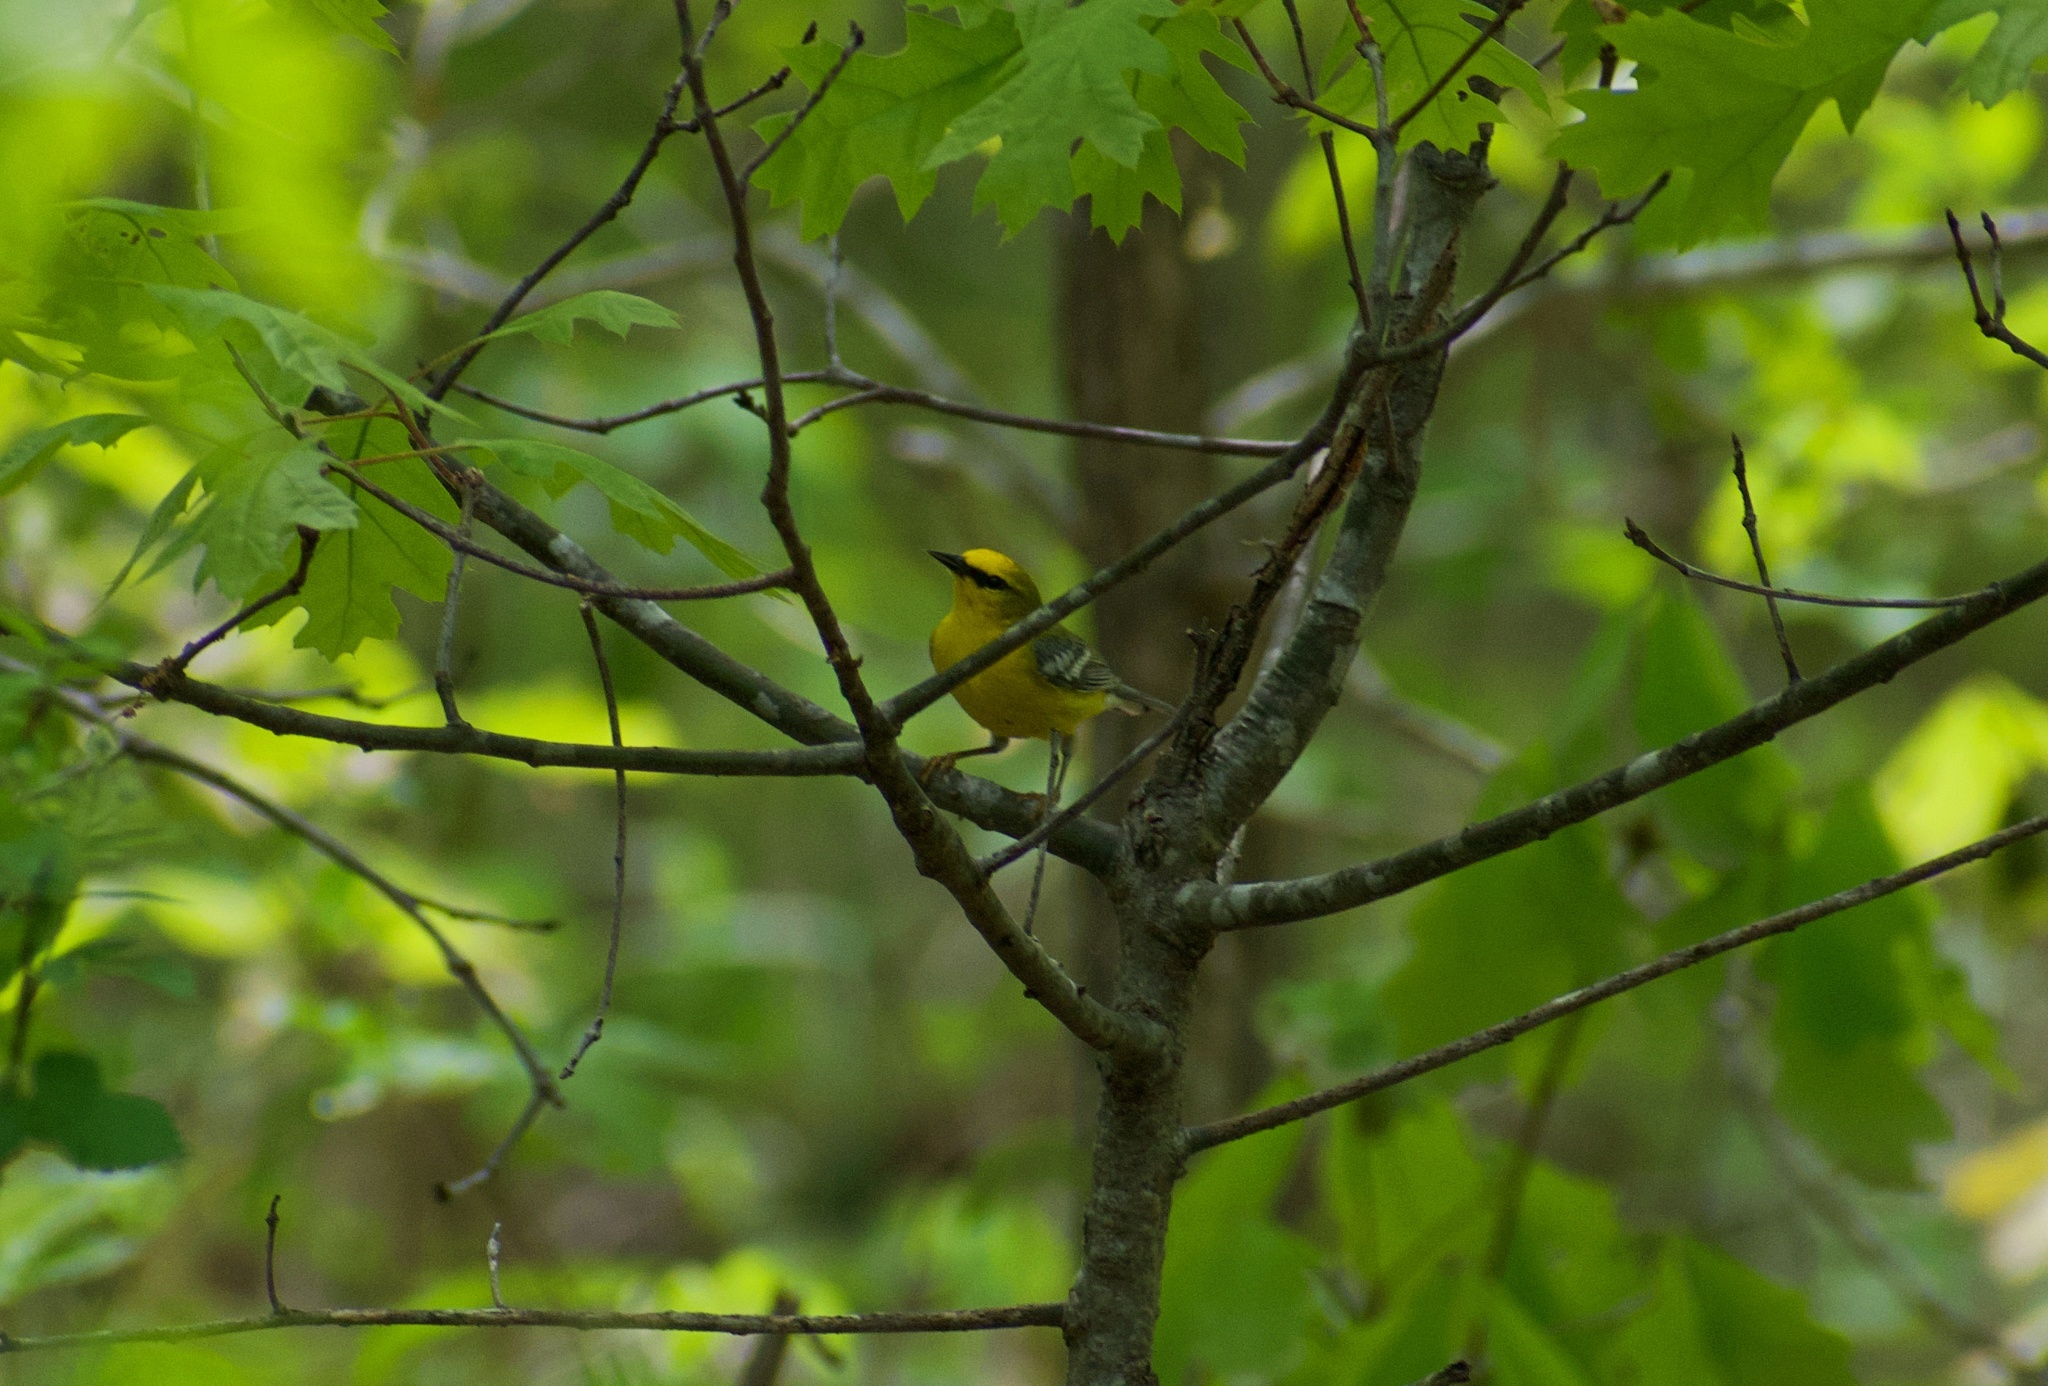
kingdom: Animalia
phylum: Chordata
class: Aves
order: Passeriformes
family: Parulidae
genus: Vermivora
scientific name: Vermivora cyanoptera
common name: Blue-winged warbler
